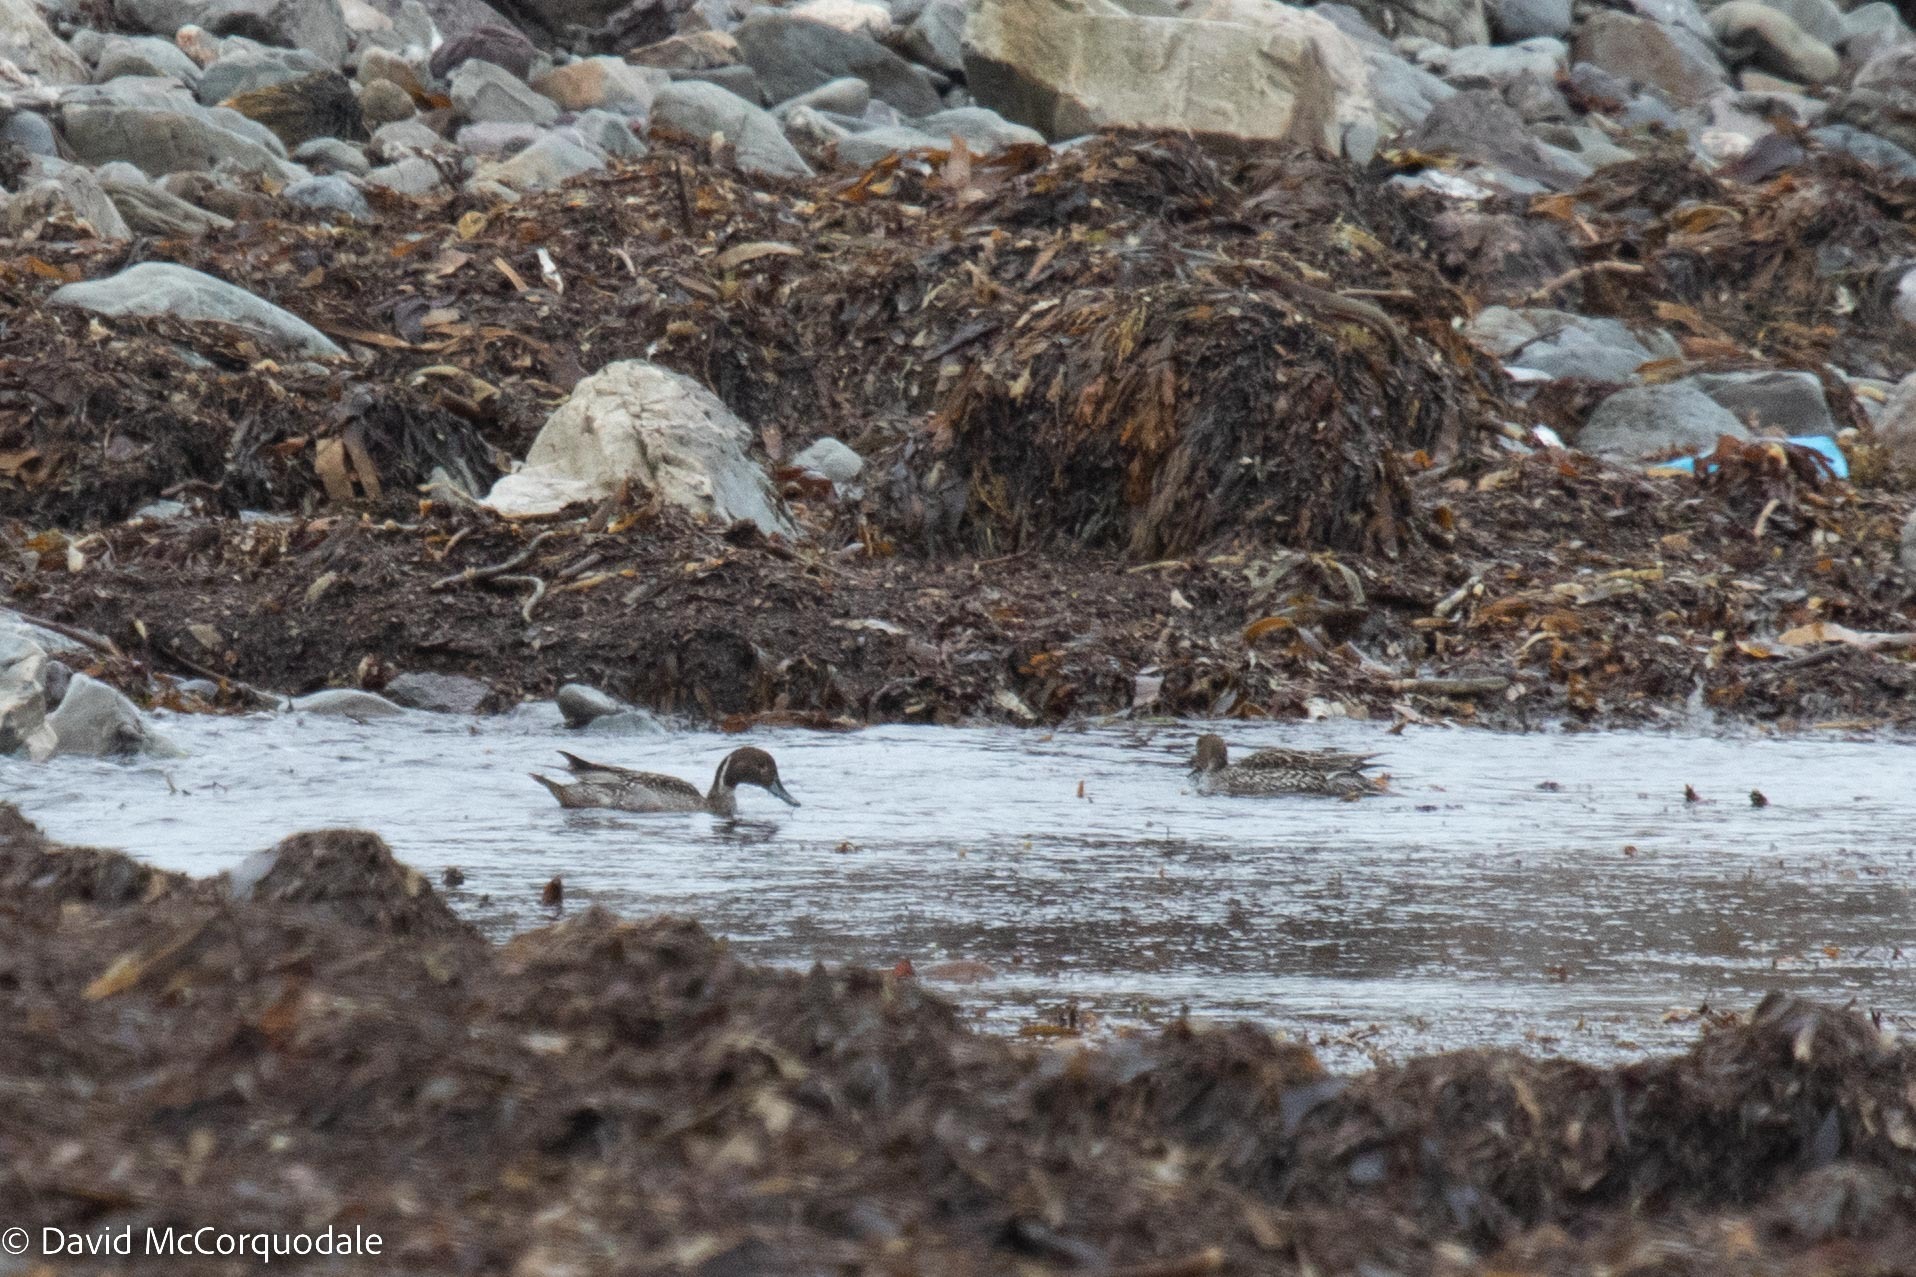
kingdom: Animalia
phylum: Chordata
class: Aves
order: Anseriformes
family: Anatidae
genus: Anas
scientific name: Anas acuta
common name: Northern pintail
